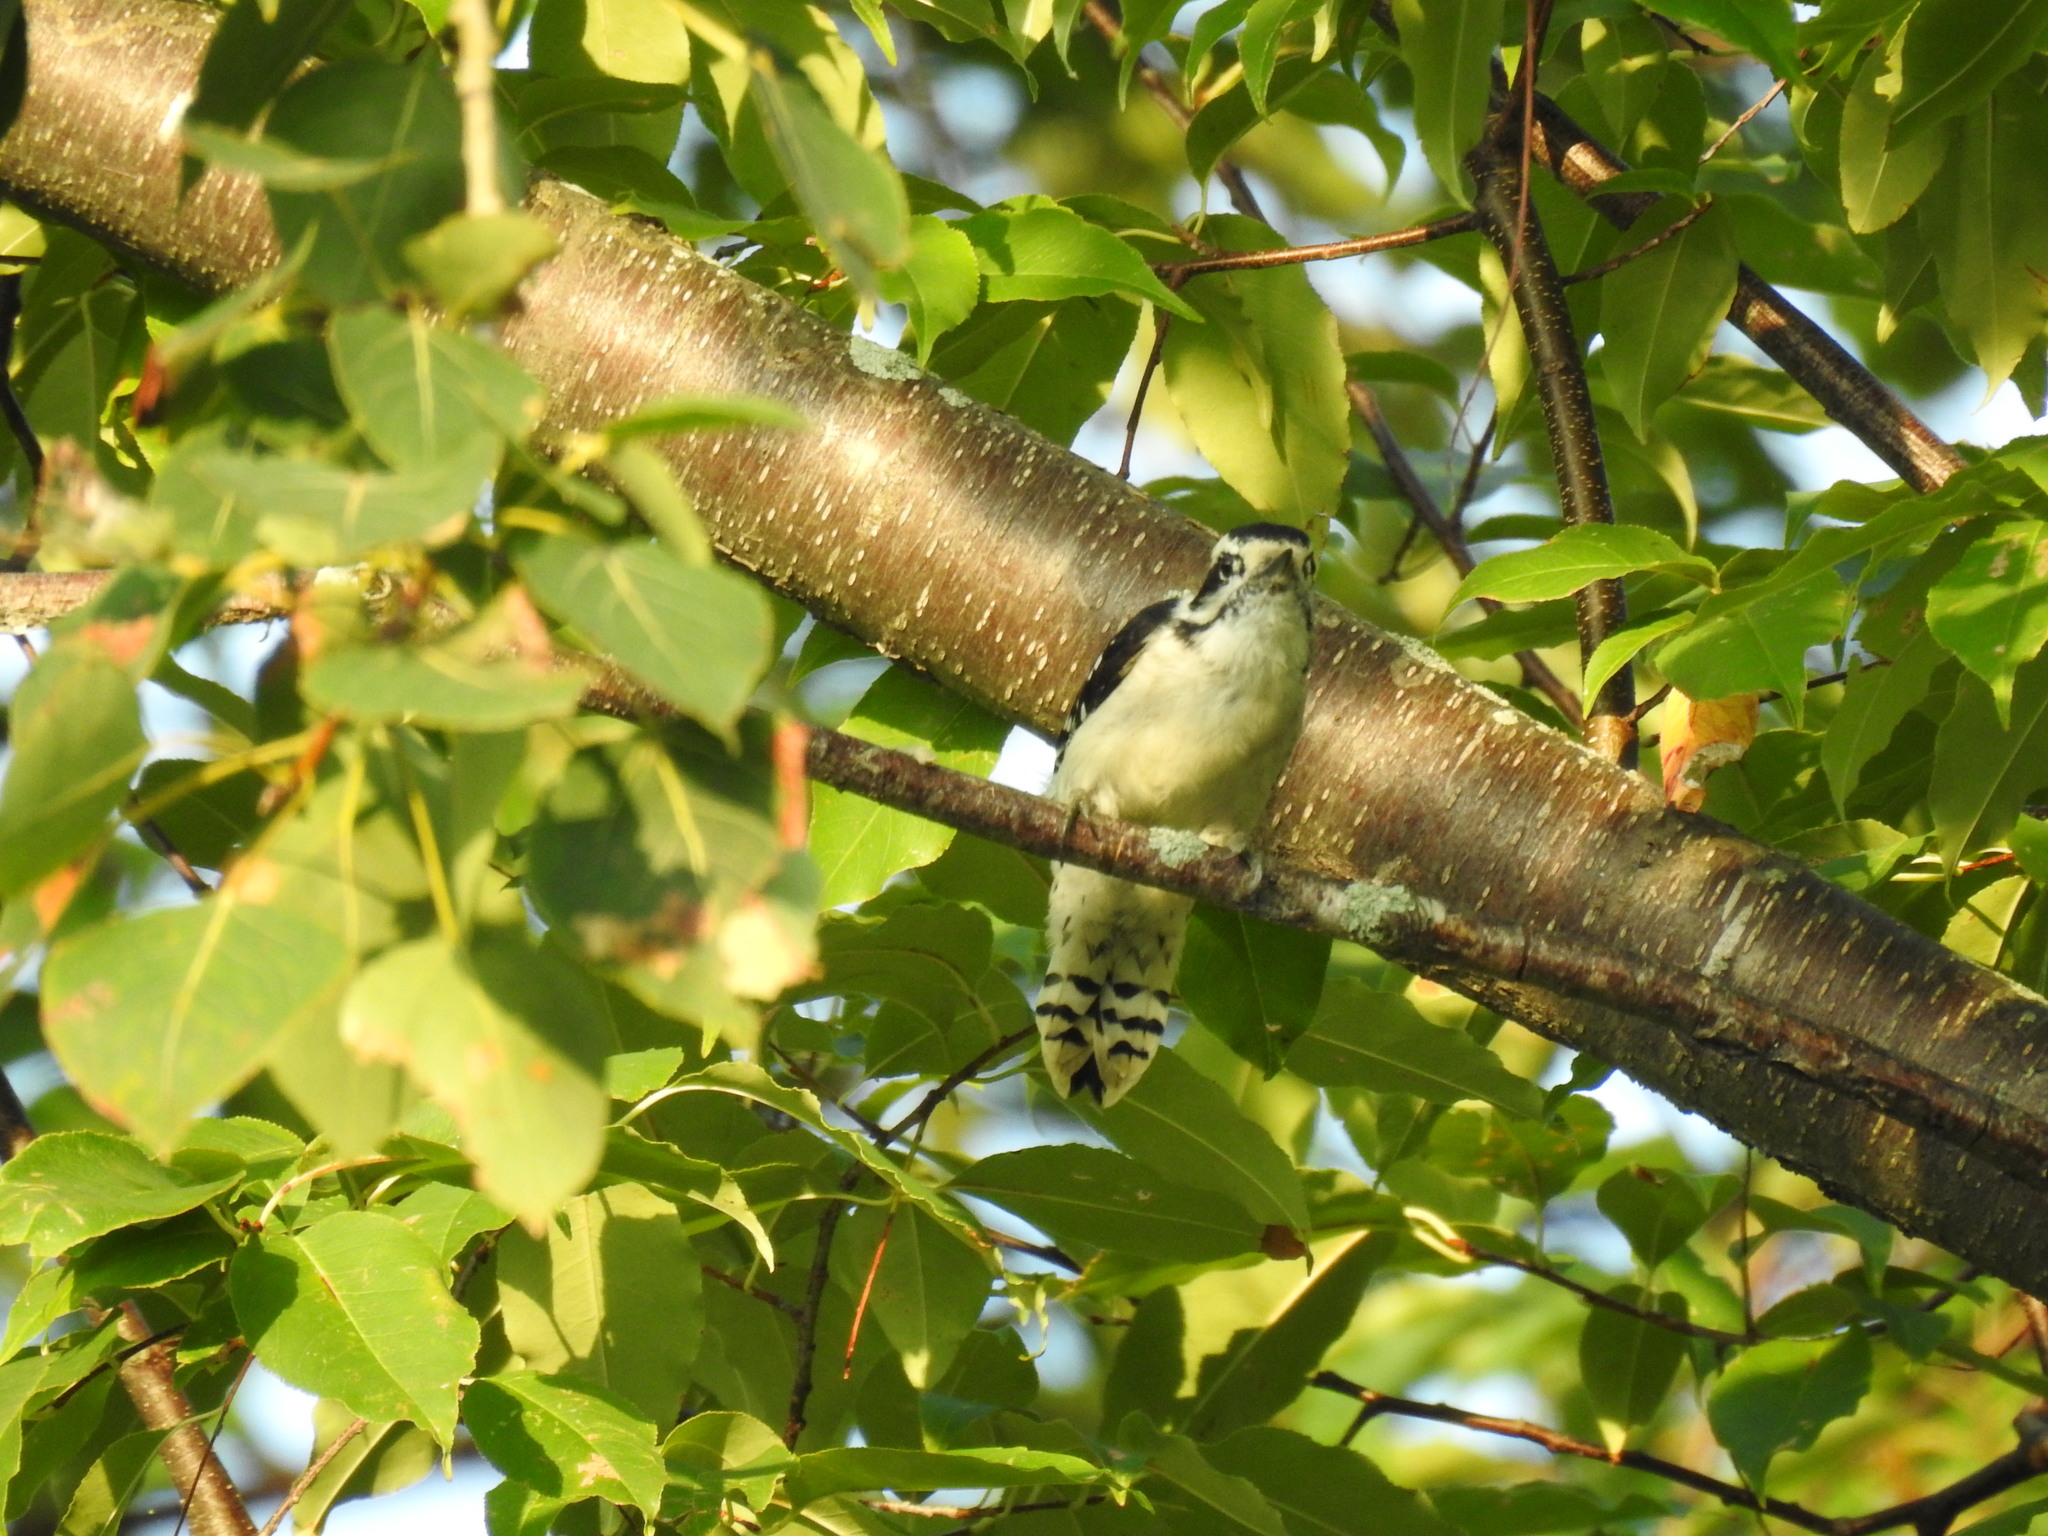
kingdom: Animalia
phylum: Chordata
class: Aves
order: Piciformes
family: Picidae
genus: Dryobates
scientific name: Dryobates pubescens
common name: Downy woodpecker
